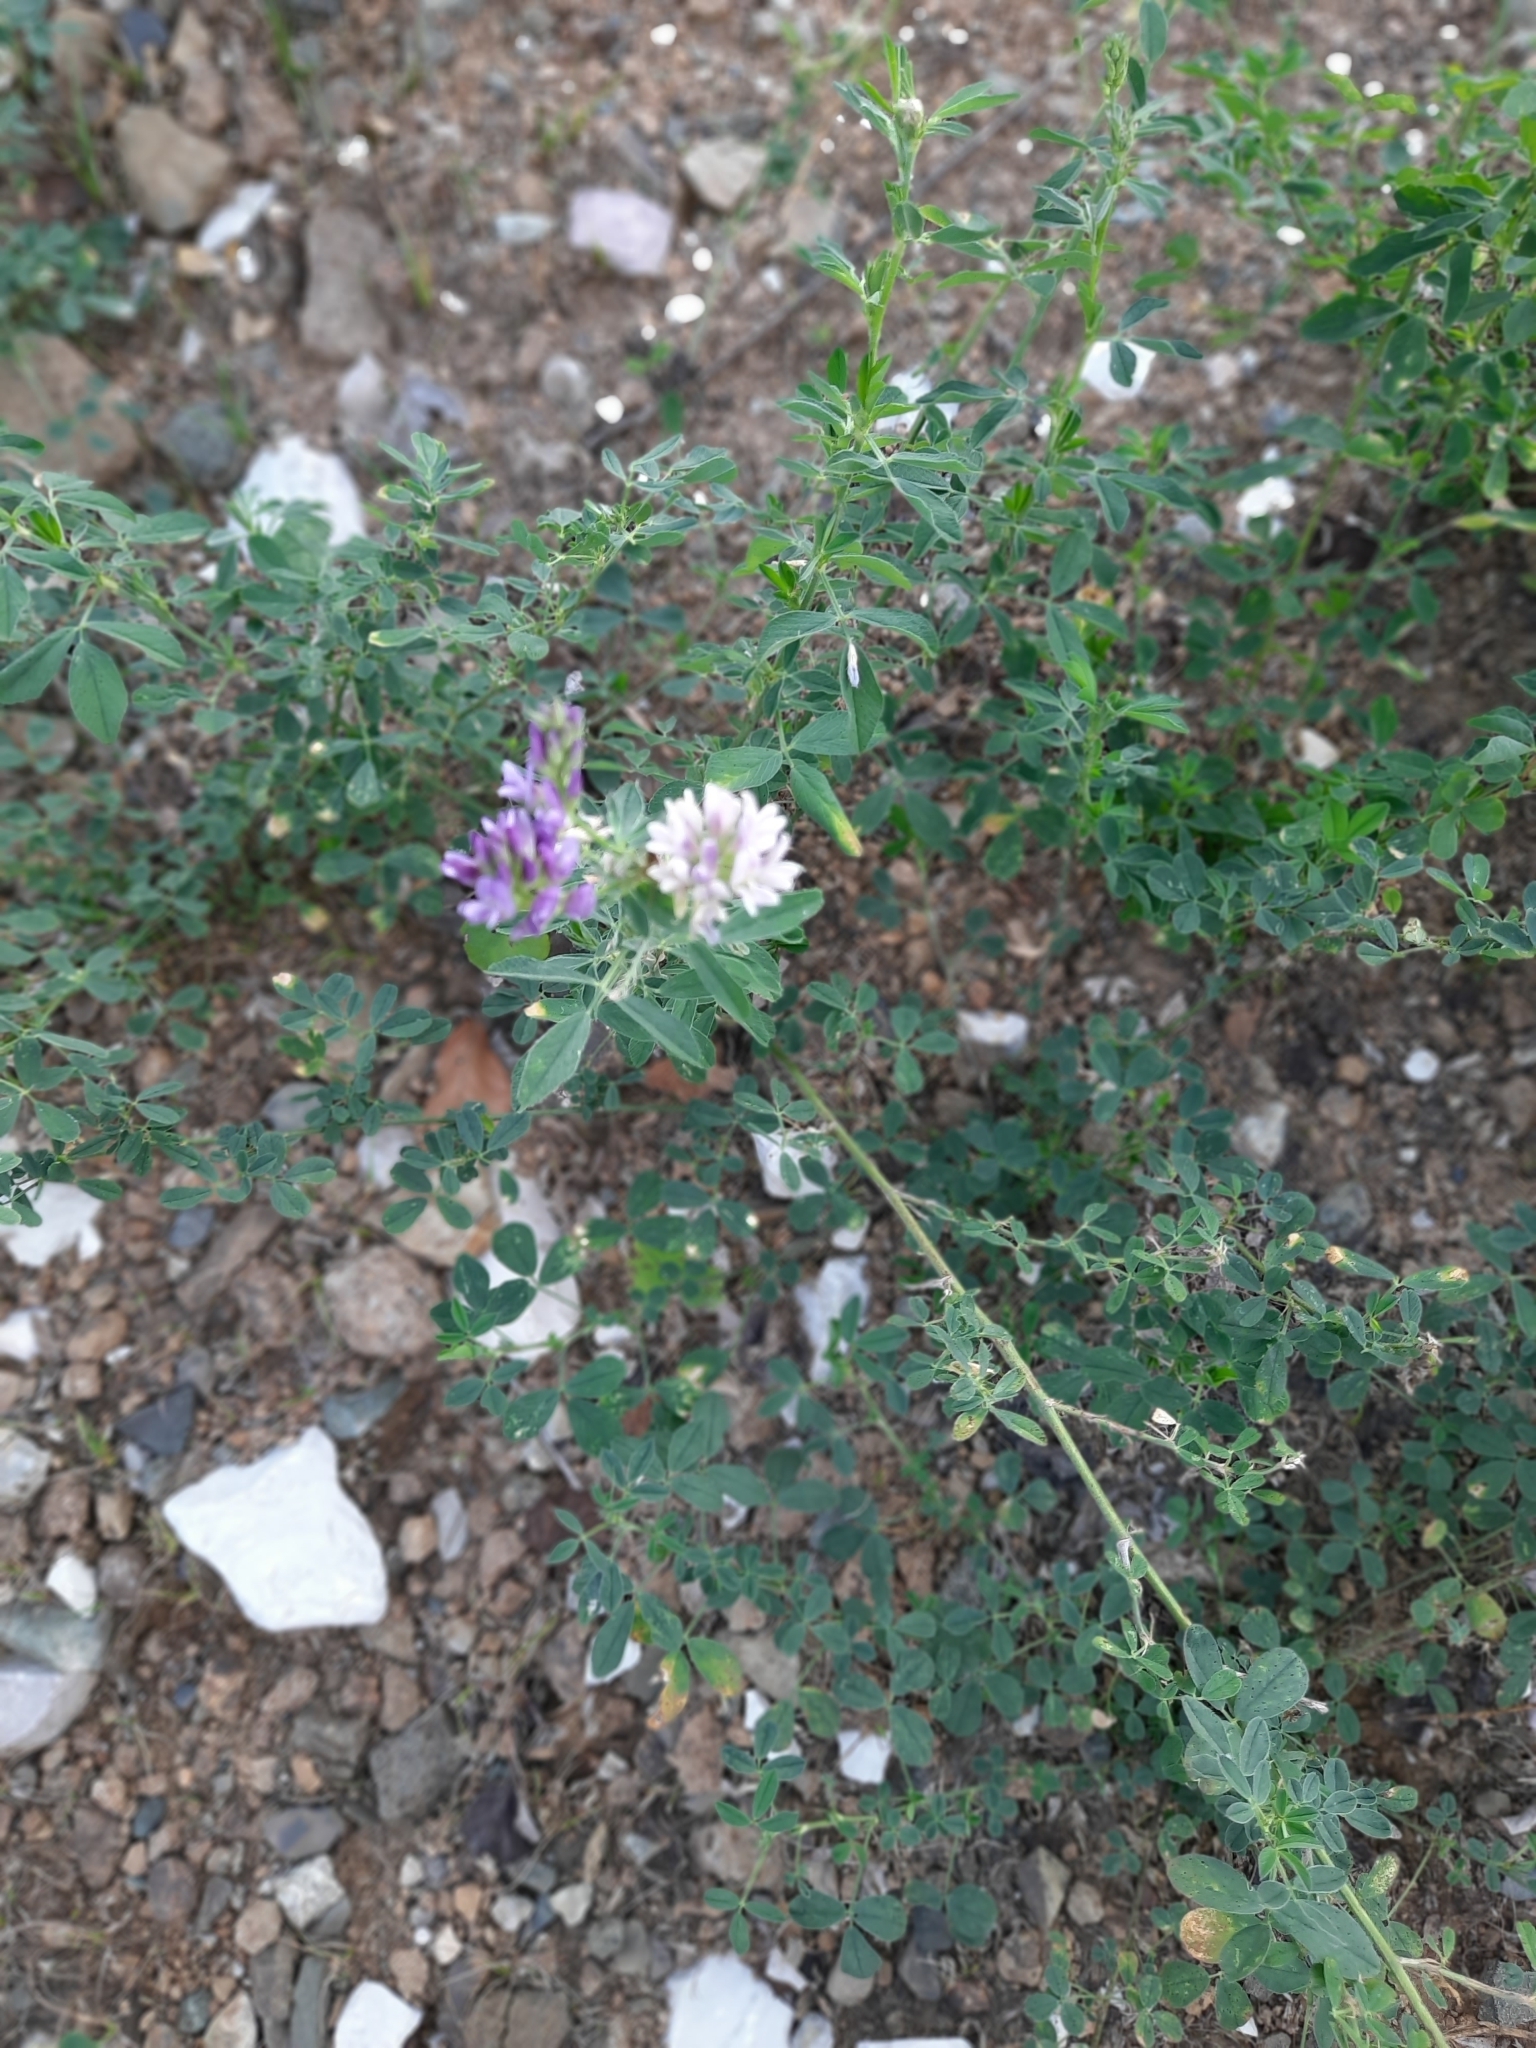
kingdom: Plantae
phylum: Tracheophyta
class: Magnoliopsida
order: Fabales
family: Fabaceae
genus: Medicago
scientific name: Medicago varia
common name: Sand lucerne
